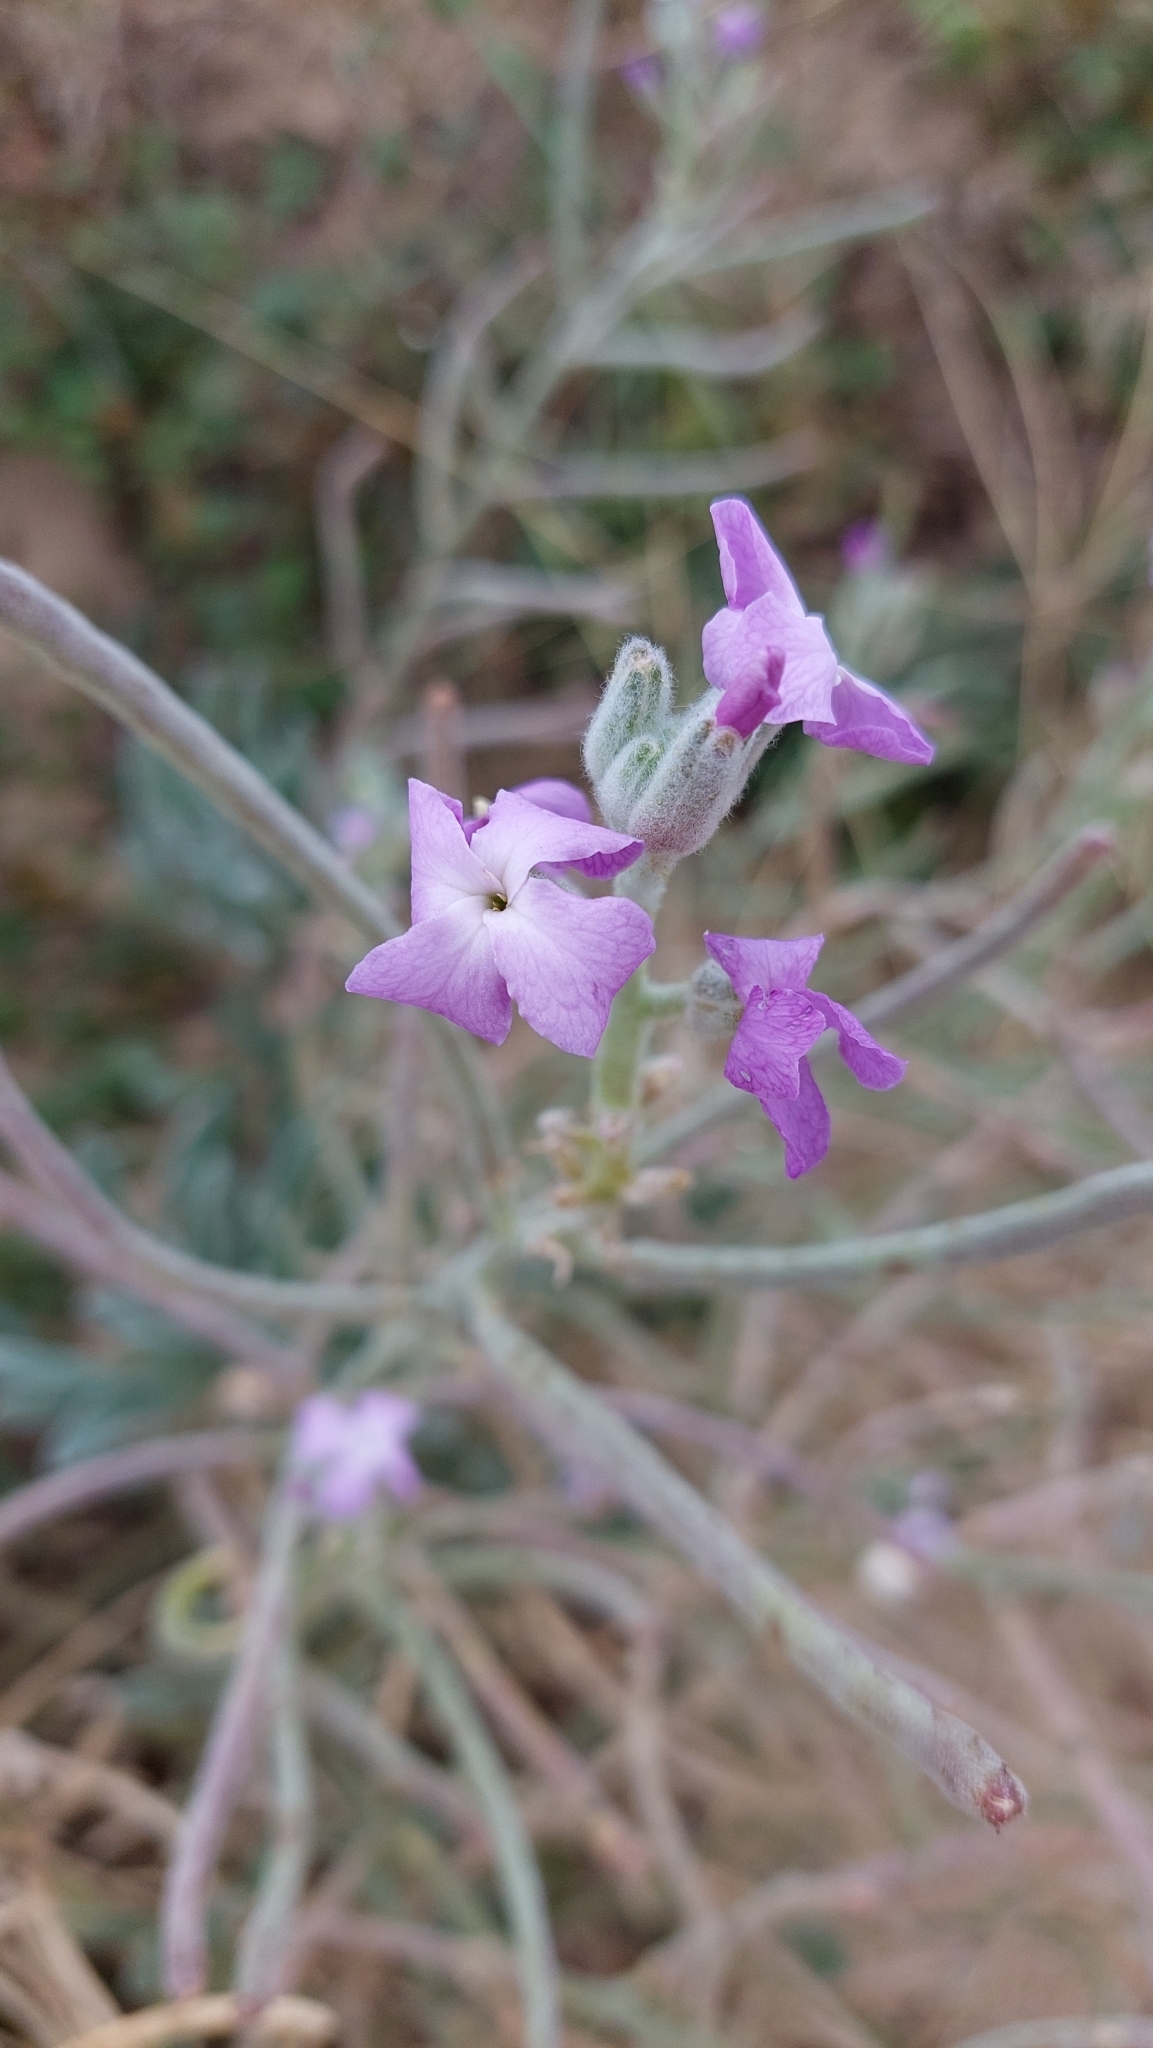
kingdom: Plantae
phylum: Tracheophyta
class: Magnoliopsida
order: Brassicales
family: Brassicaceae
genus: Matthiola
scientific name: Matthiola sinuata
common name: Sea stock
